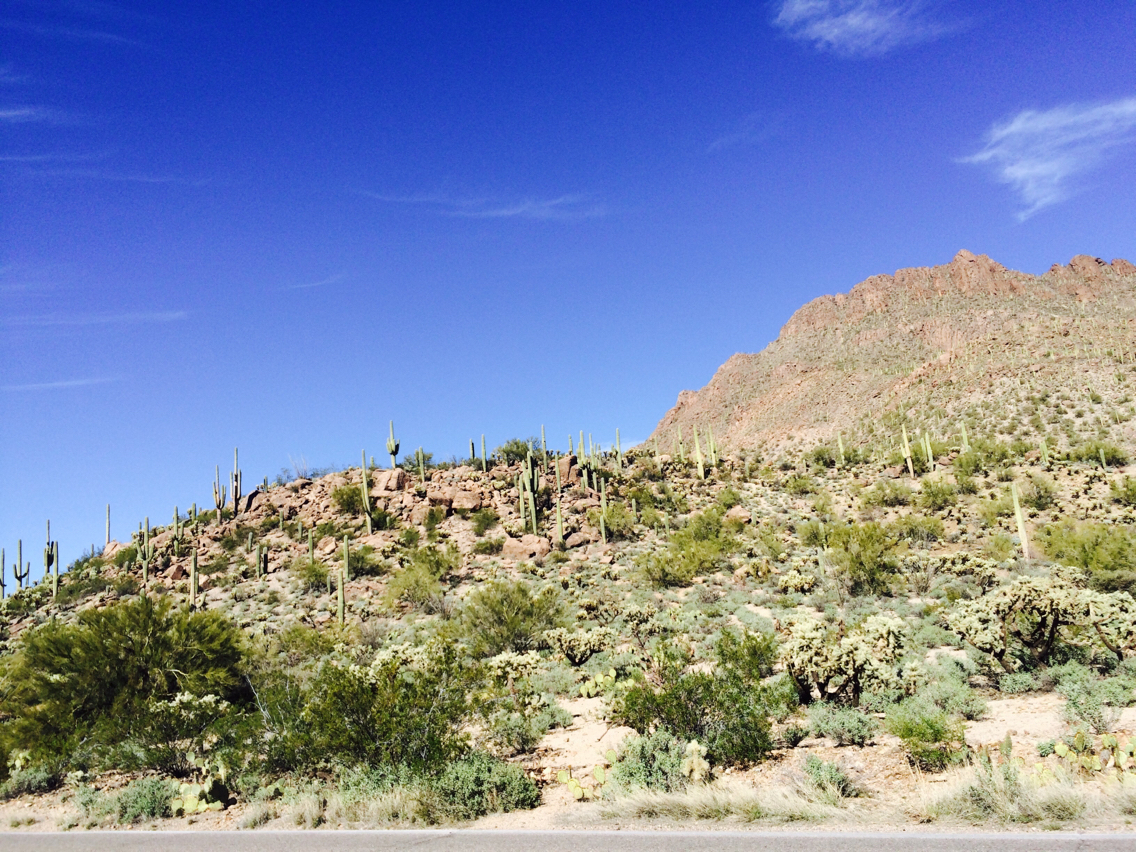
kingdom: Plantae
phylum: Tracheophyta
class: Magnoliopsida
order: Caryophyllales
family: Cactaceae
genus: Carnegiea
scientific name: Carnegiea gigantea
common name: Saguaro
